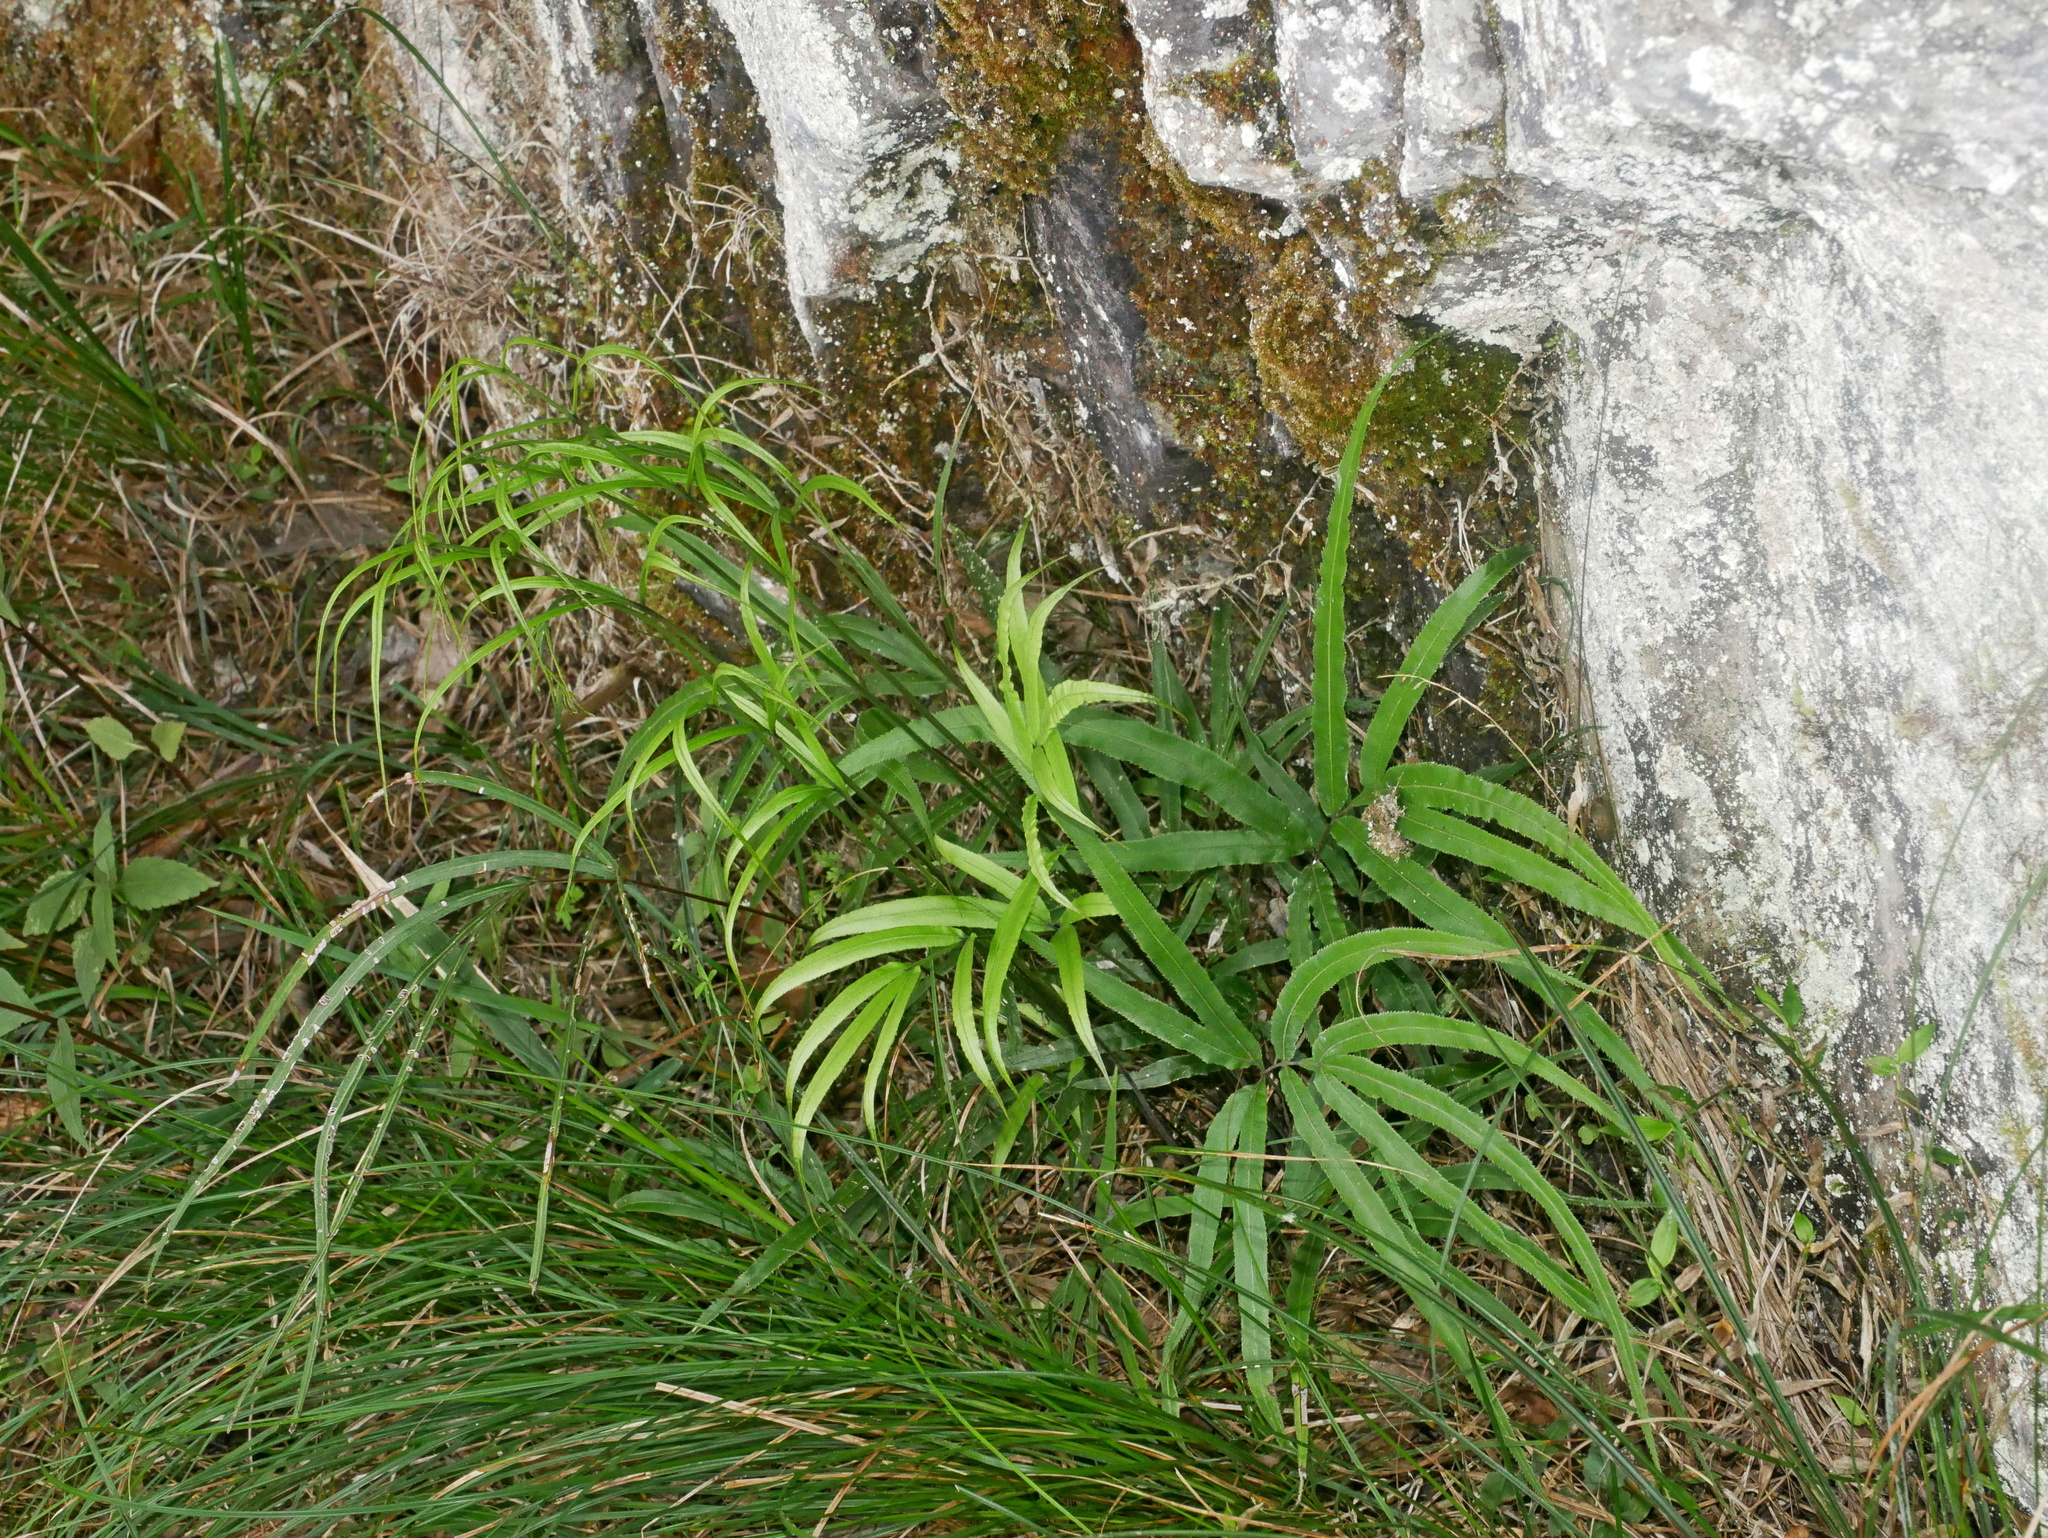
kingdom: Plantae
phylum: Tracheophyta
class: Polypodiopsida
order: Polypodiales
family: Pteridaceae
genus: Pteris
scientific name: Pteris cretica
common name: Ribbon fern
